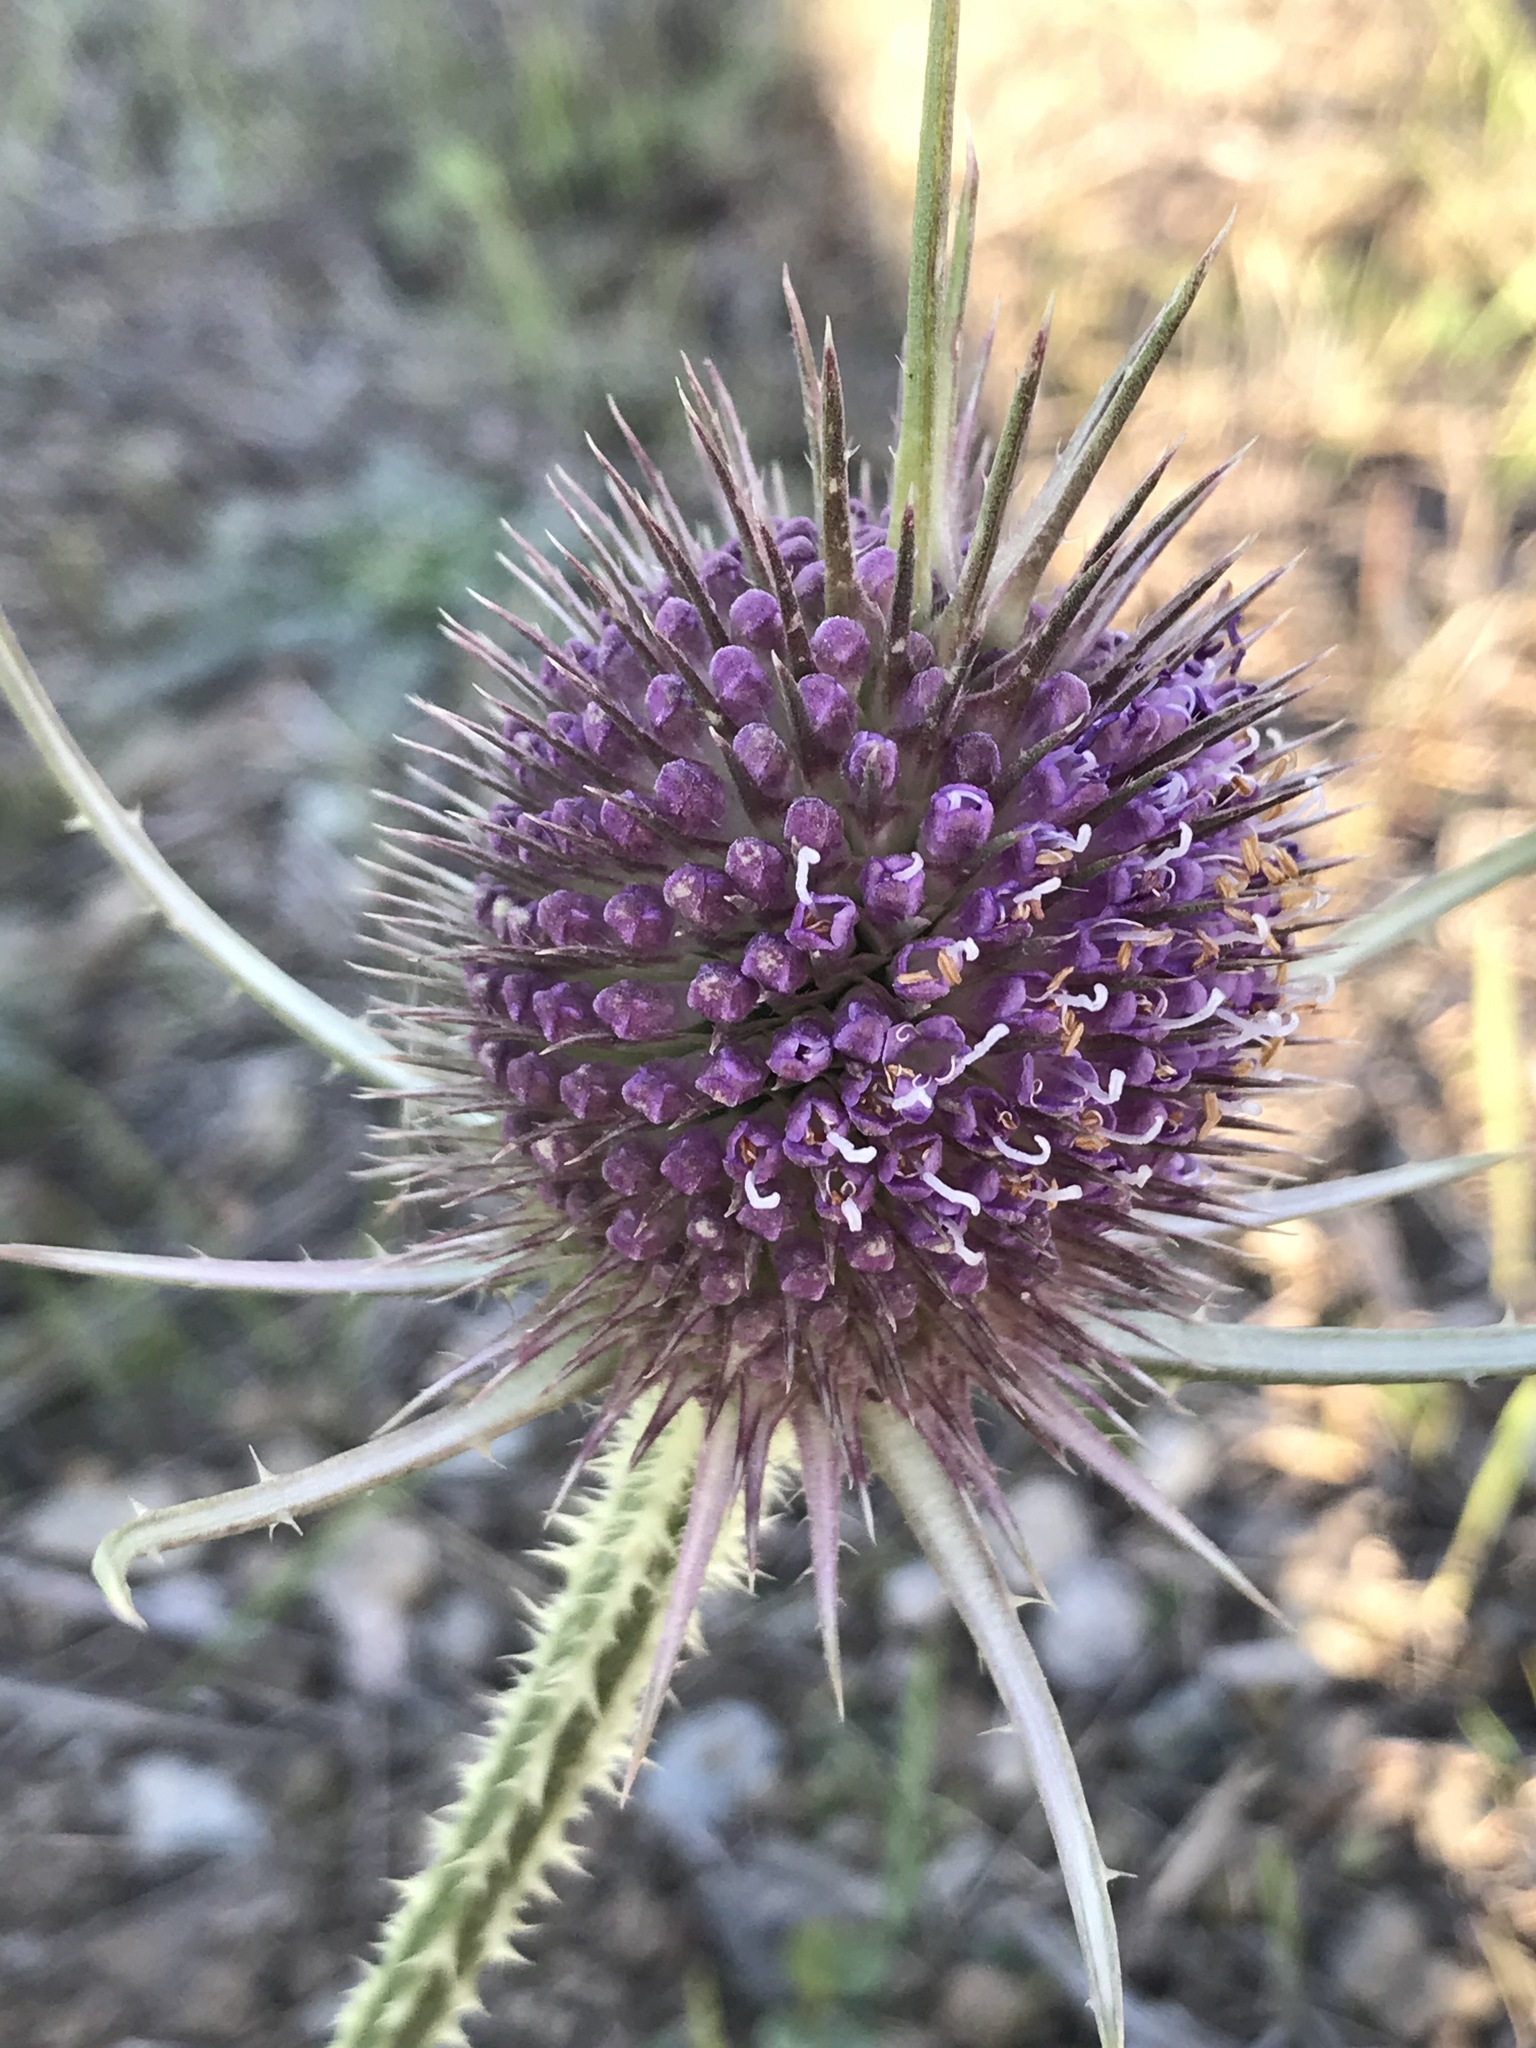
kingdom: Plantae
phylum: Tracheophyta
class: Magnoliopsida
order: Dipsacales
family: Caprifoliaceae
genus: Dipsacus
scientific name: Dipsacus fullonum
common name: Teasel
